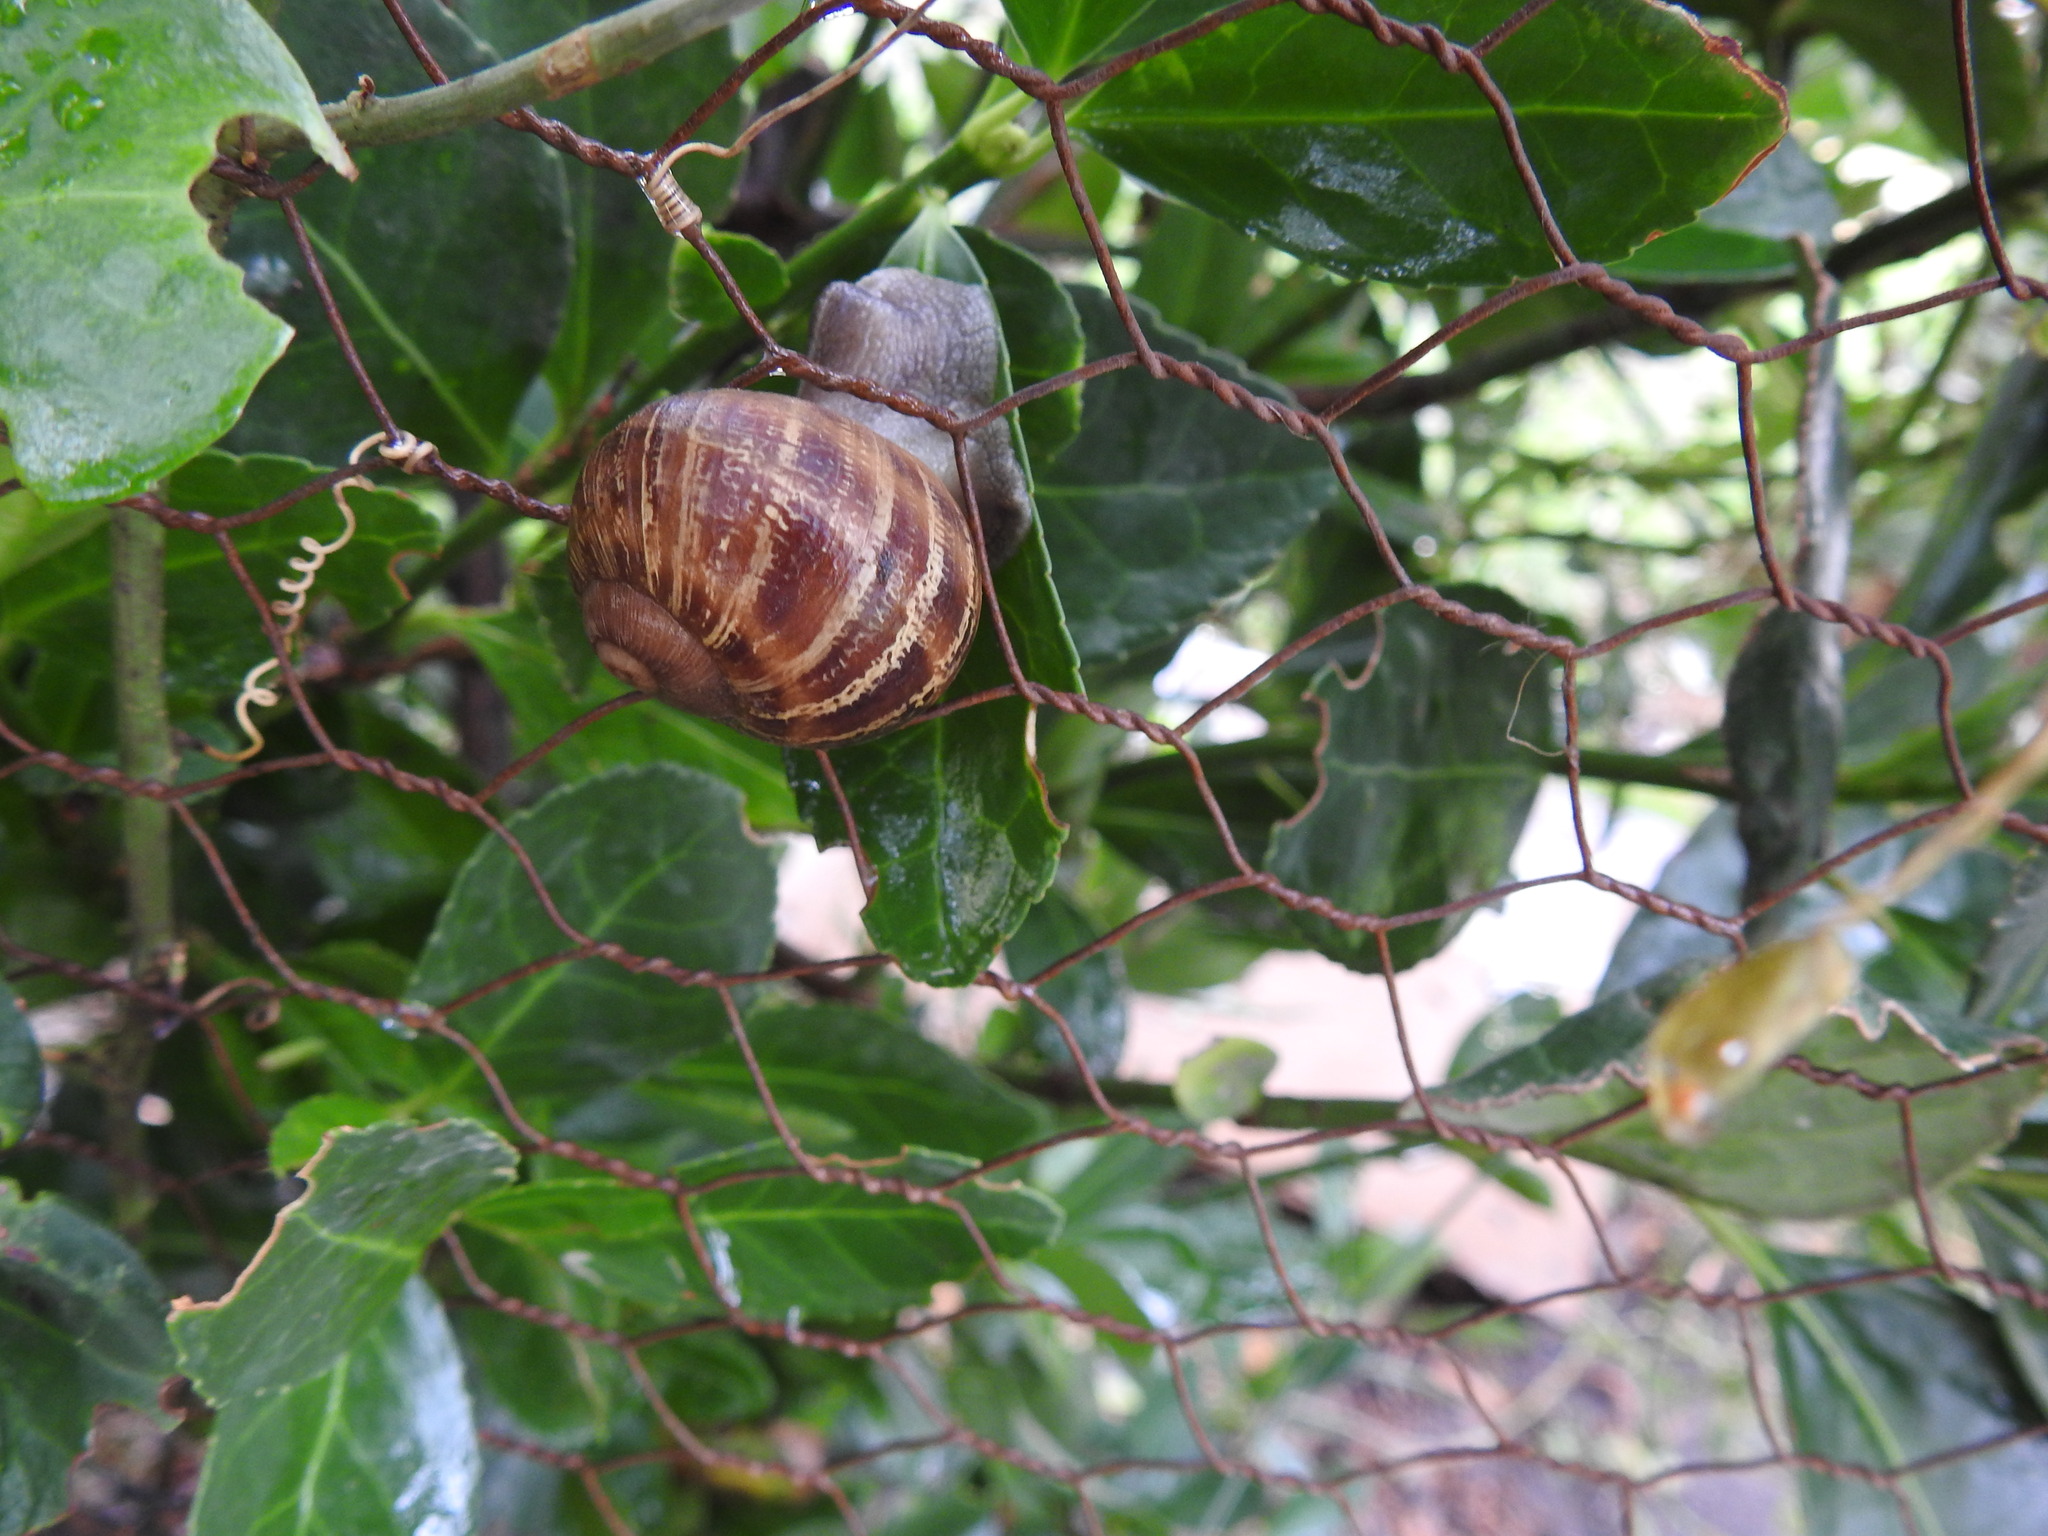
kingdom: Animalia
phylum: Mollusca
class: Gastropoda
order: Stylommatophora
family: Helicidae
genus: Cornu
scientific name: Cornu aspersum
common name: Brown garden snail
